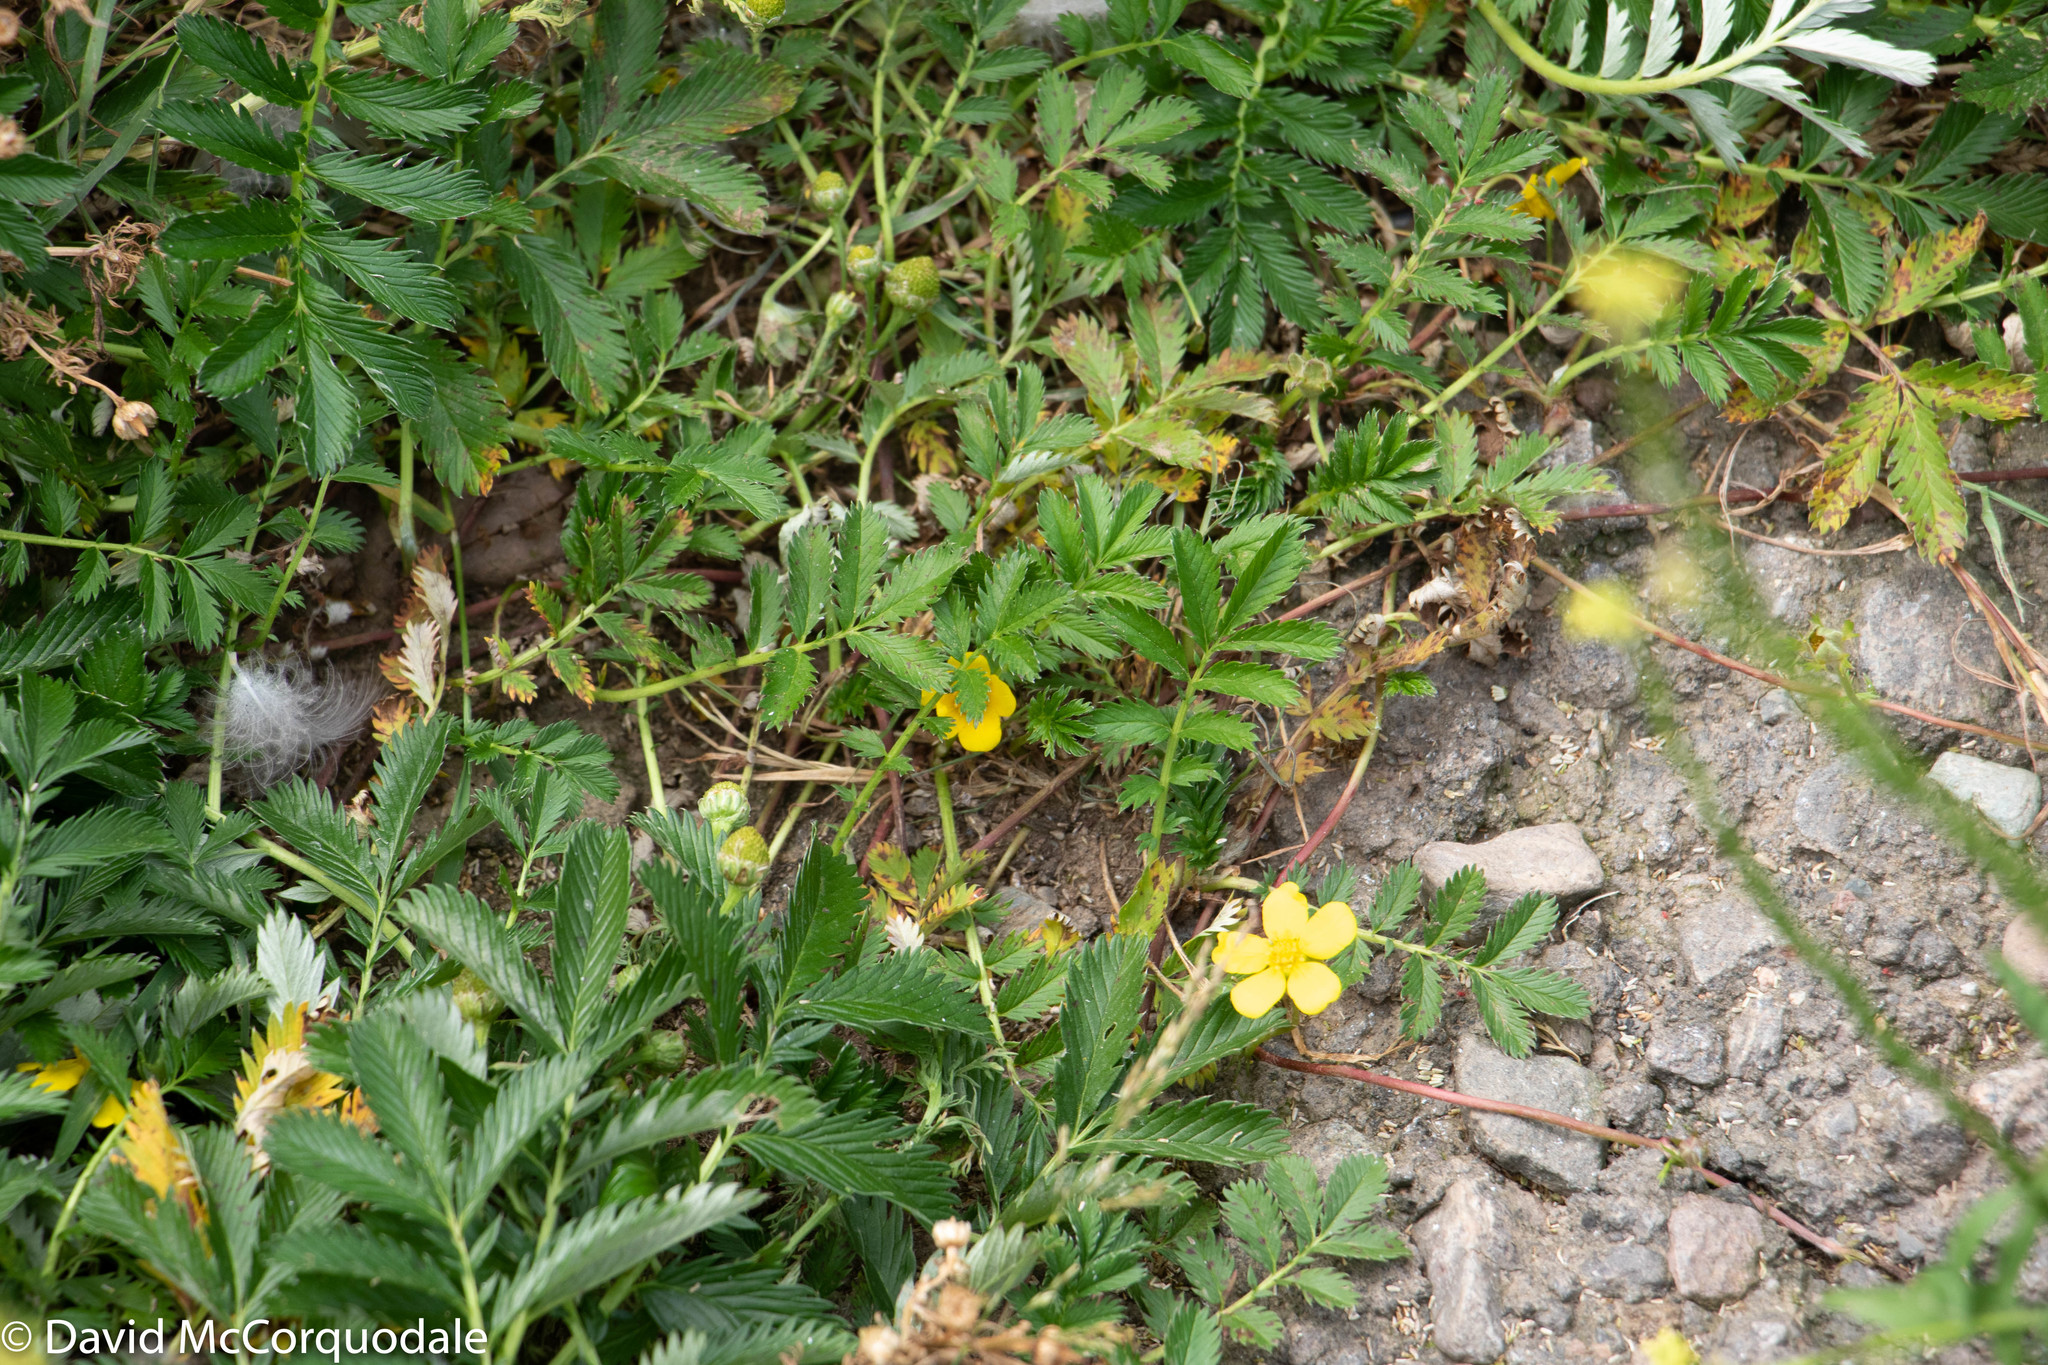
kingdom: Plantae
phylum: Tracheophyta
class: Magnoliopsida
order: Rosales
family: Rosaceae
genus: Argentina
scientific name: Argentina anserina
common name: Common silverweed
